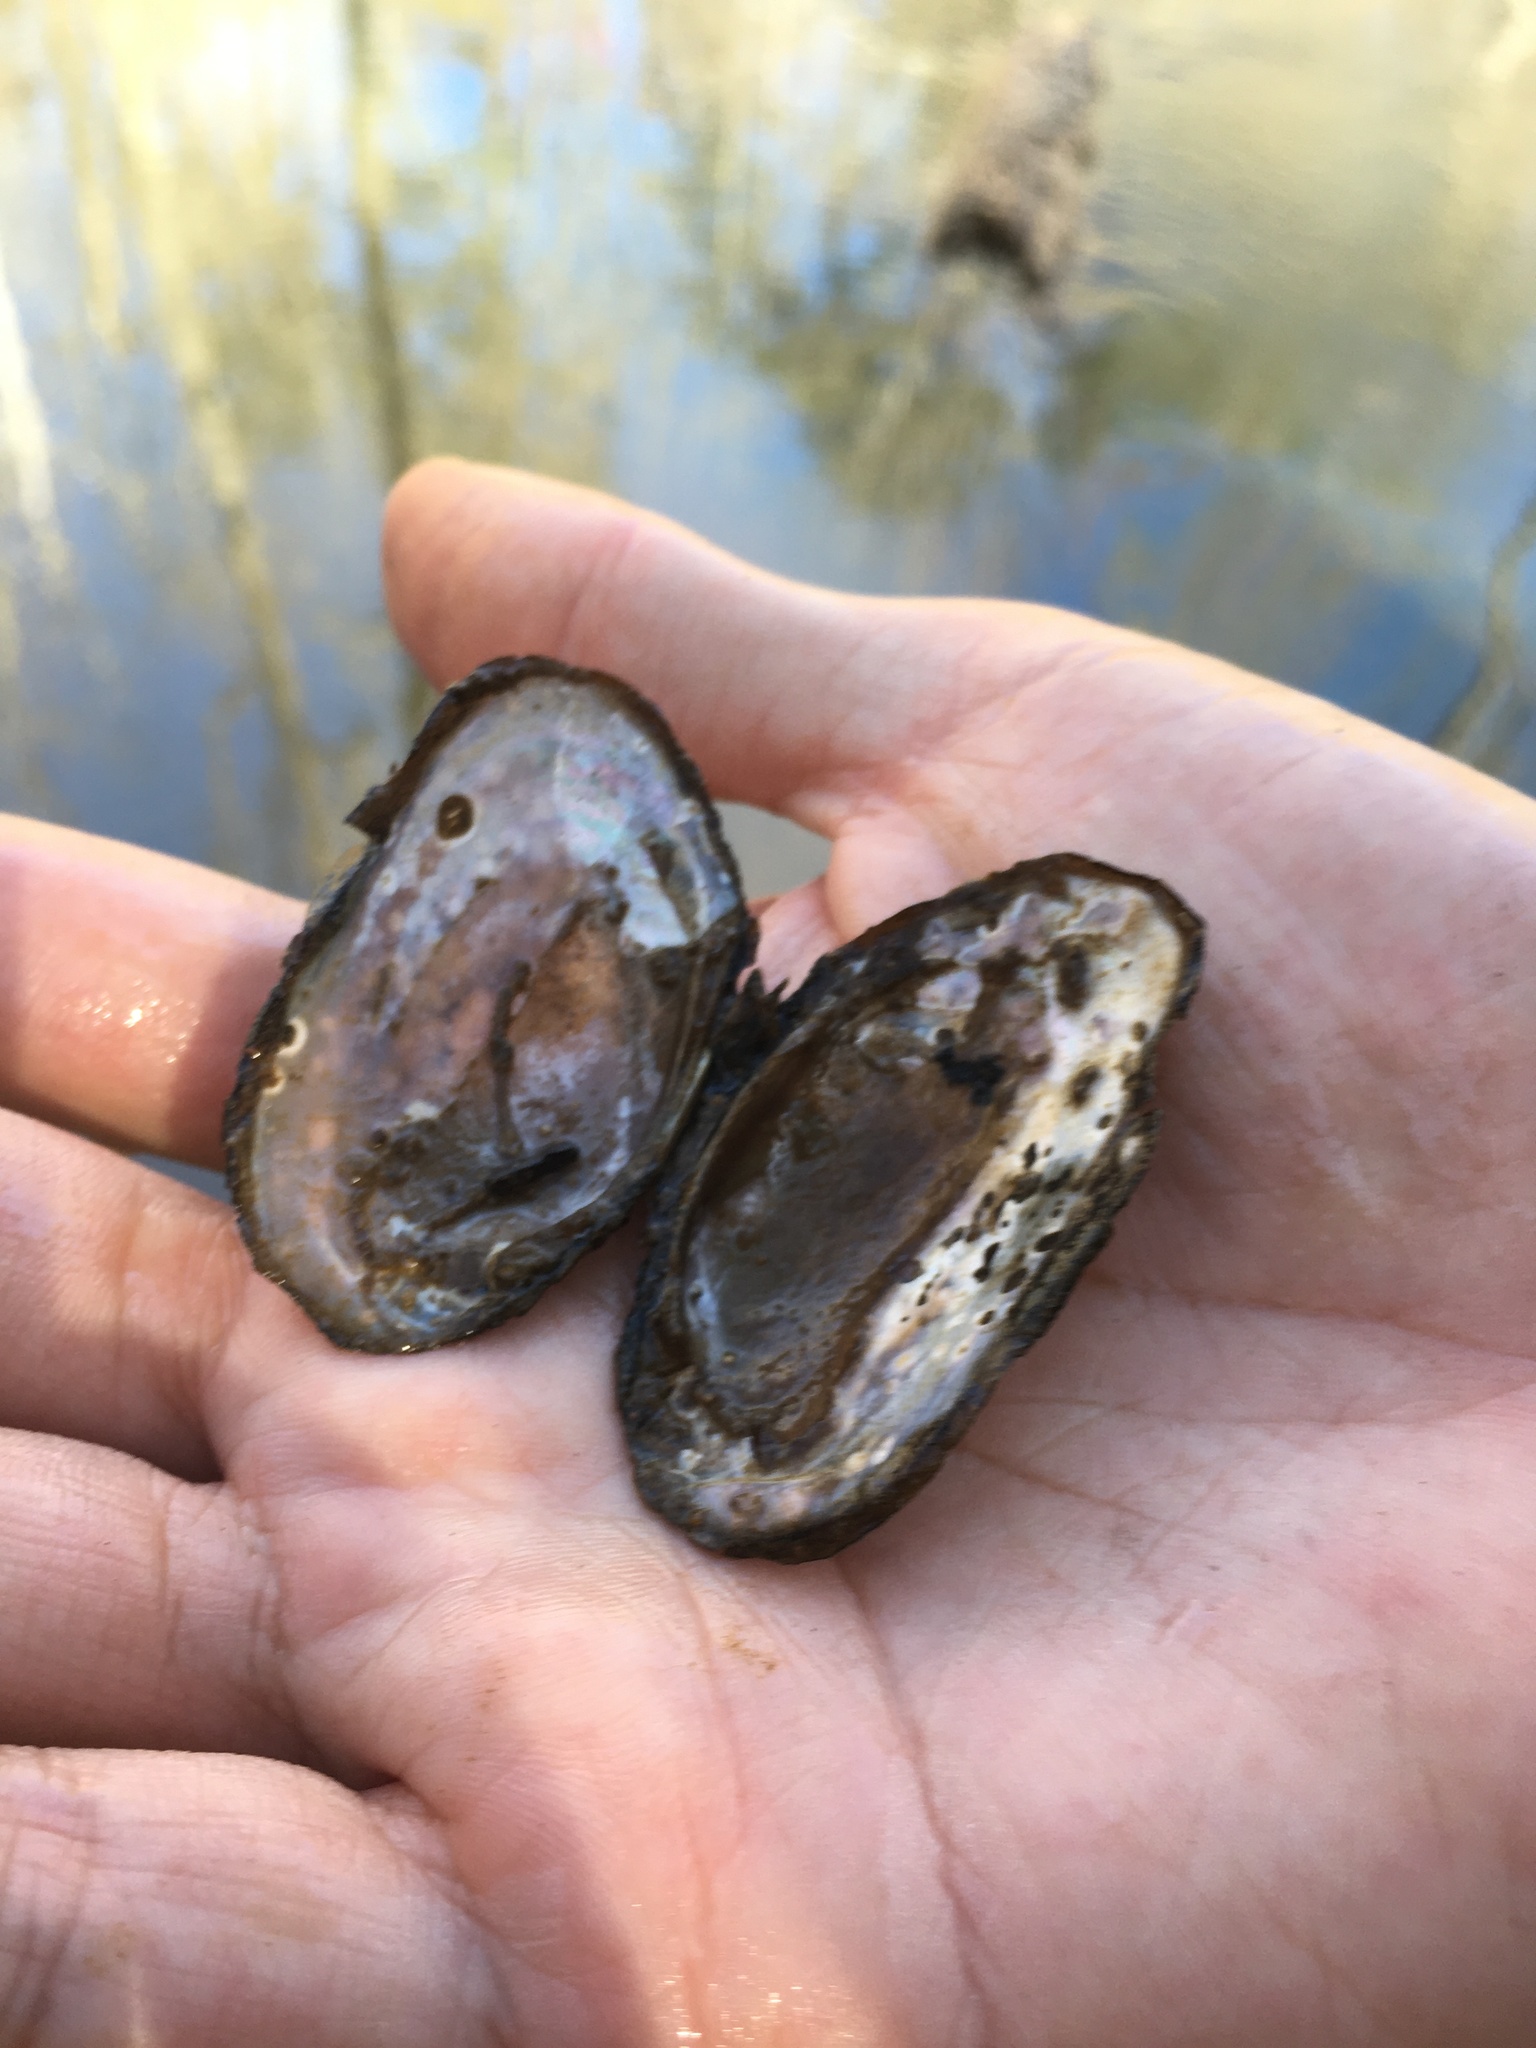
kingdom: Animalia
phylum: Mollusca
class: Bivalvia
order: Unionida
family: Unionidae
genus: Uniomerus
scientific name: Uniomerus carolinianus
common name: Eastern pondhorn
